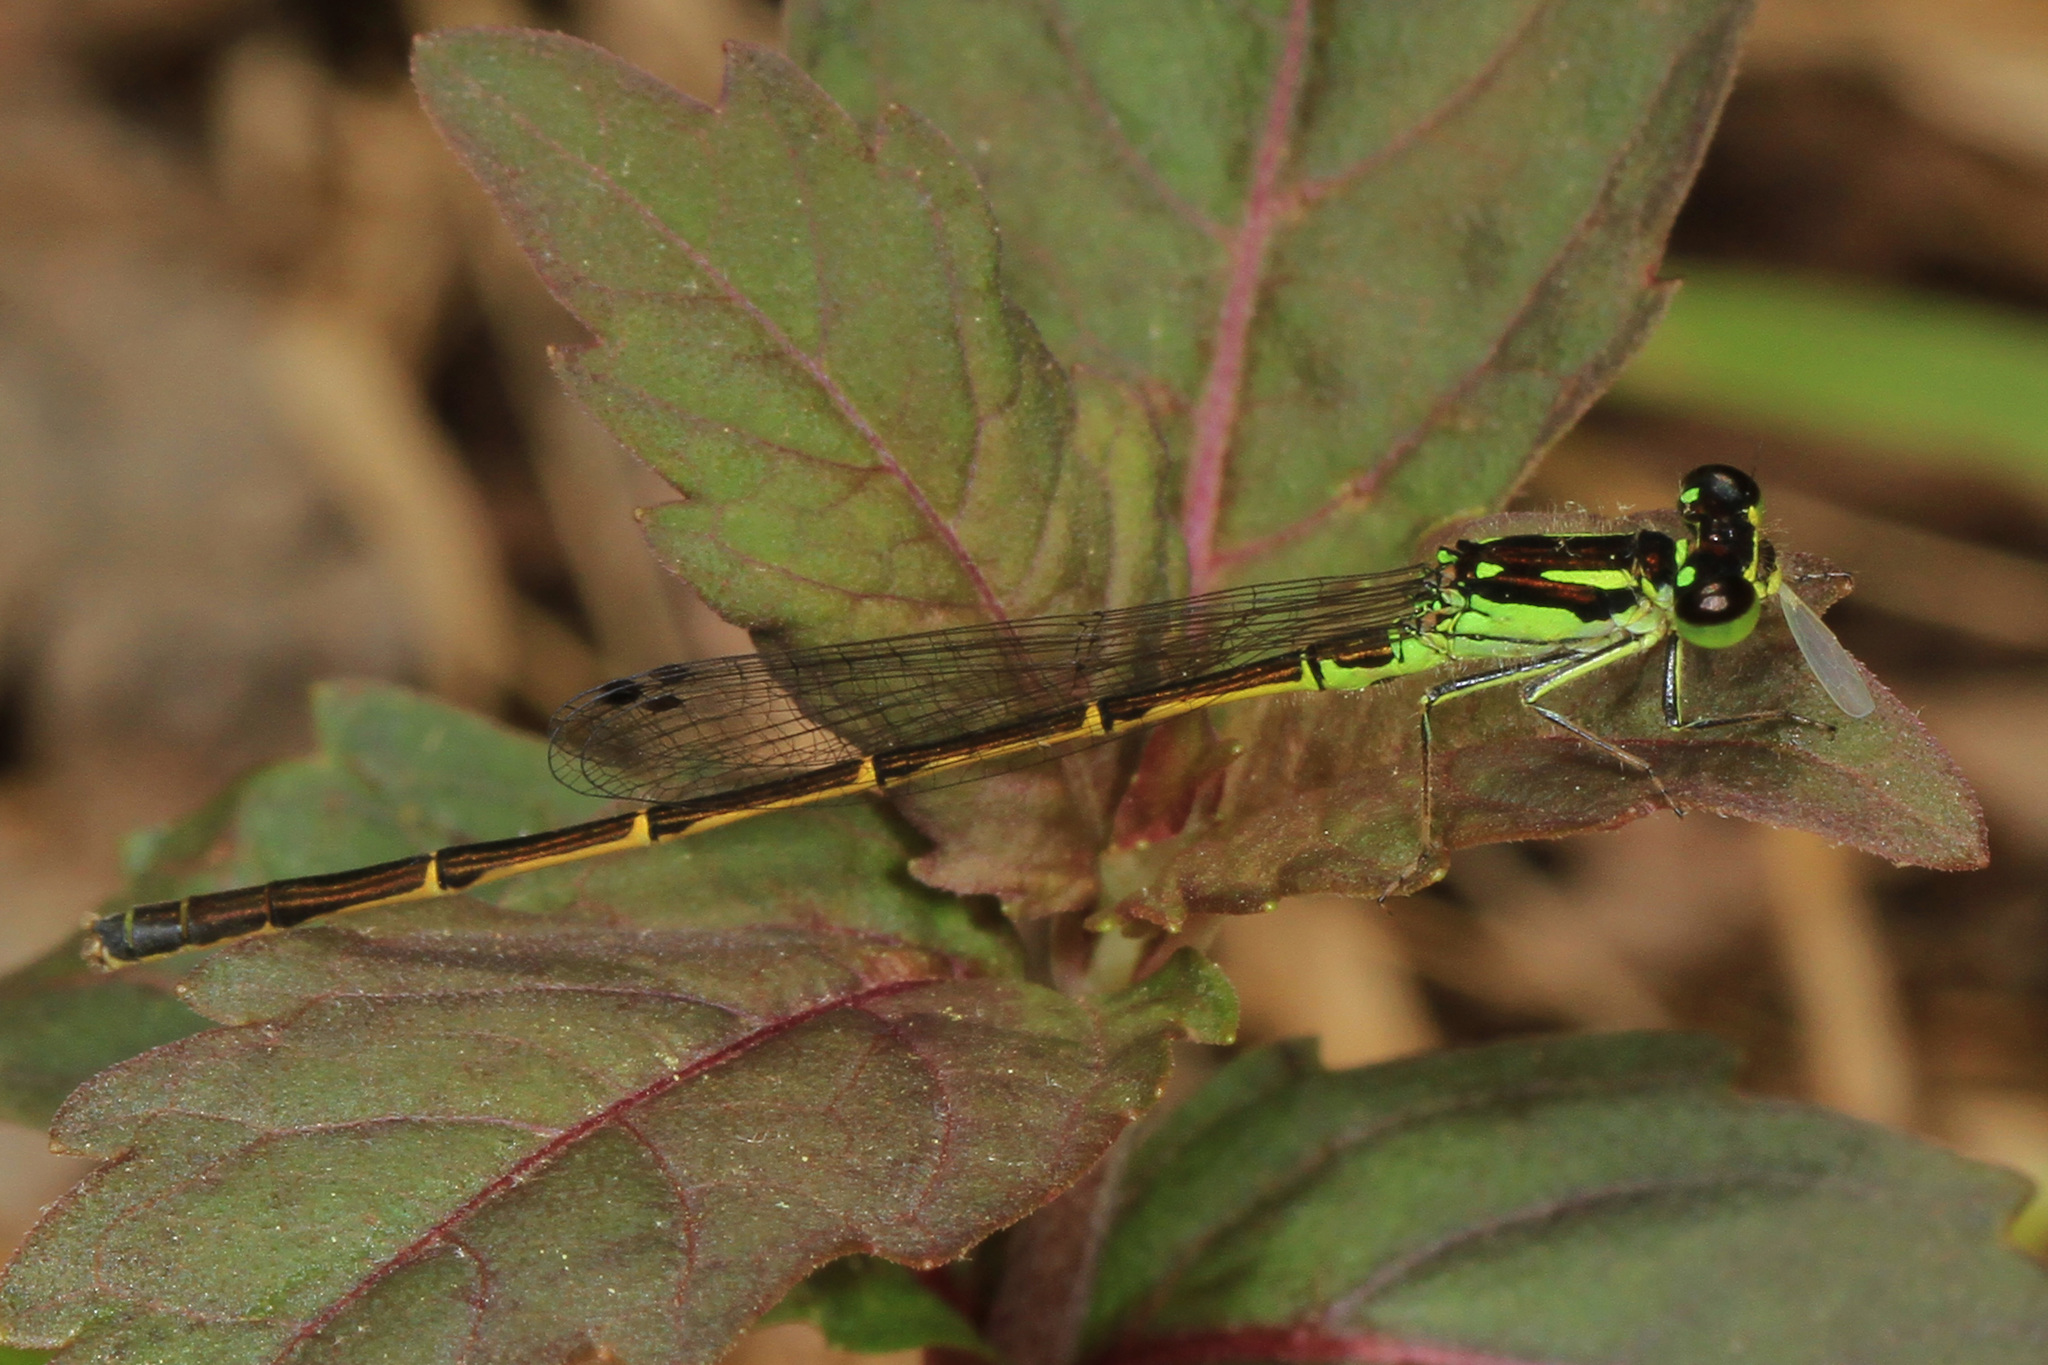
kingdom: Animalia
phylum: Arthropoda
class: Insecta
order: Odonata
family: Coenagrionidae
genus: Ischnura
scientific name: Ischnura posita
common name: Fragile forktail
